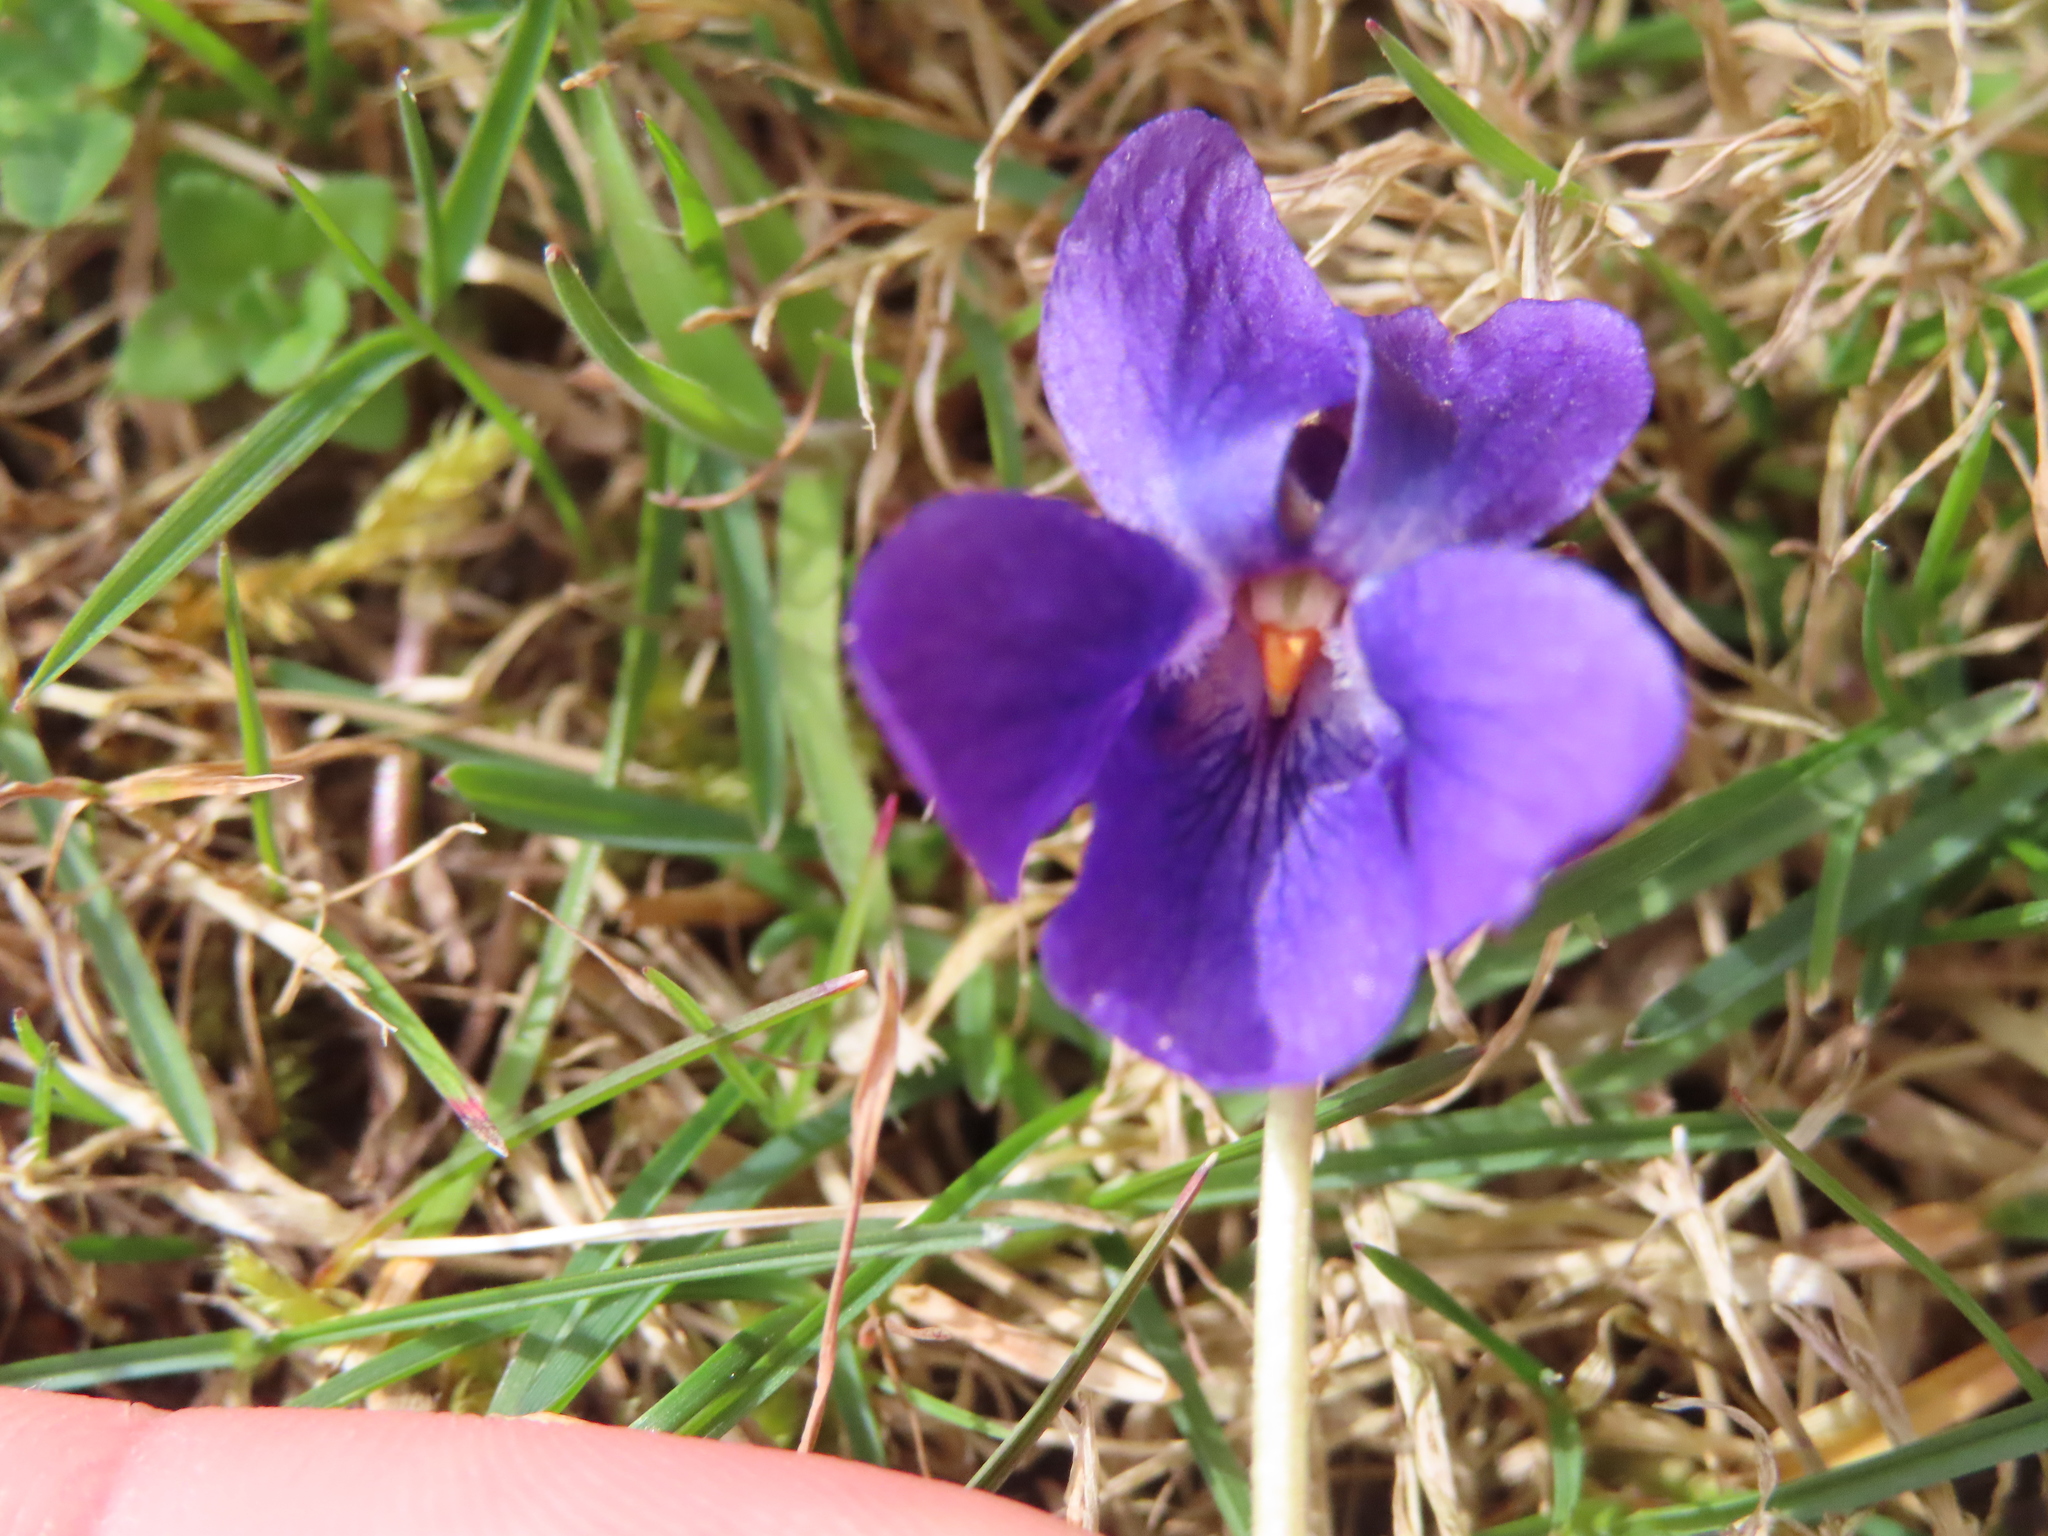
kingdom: Plantae
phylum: Tracheophyta
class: Magnoliopsida
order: Malpighiales
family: Violaceae
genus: Viola
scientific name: Viola odorata
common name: Sweet violet
